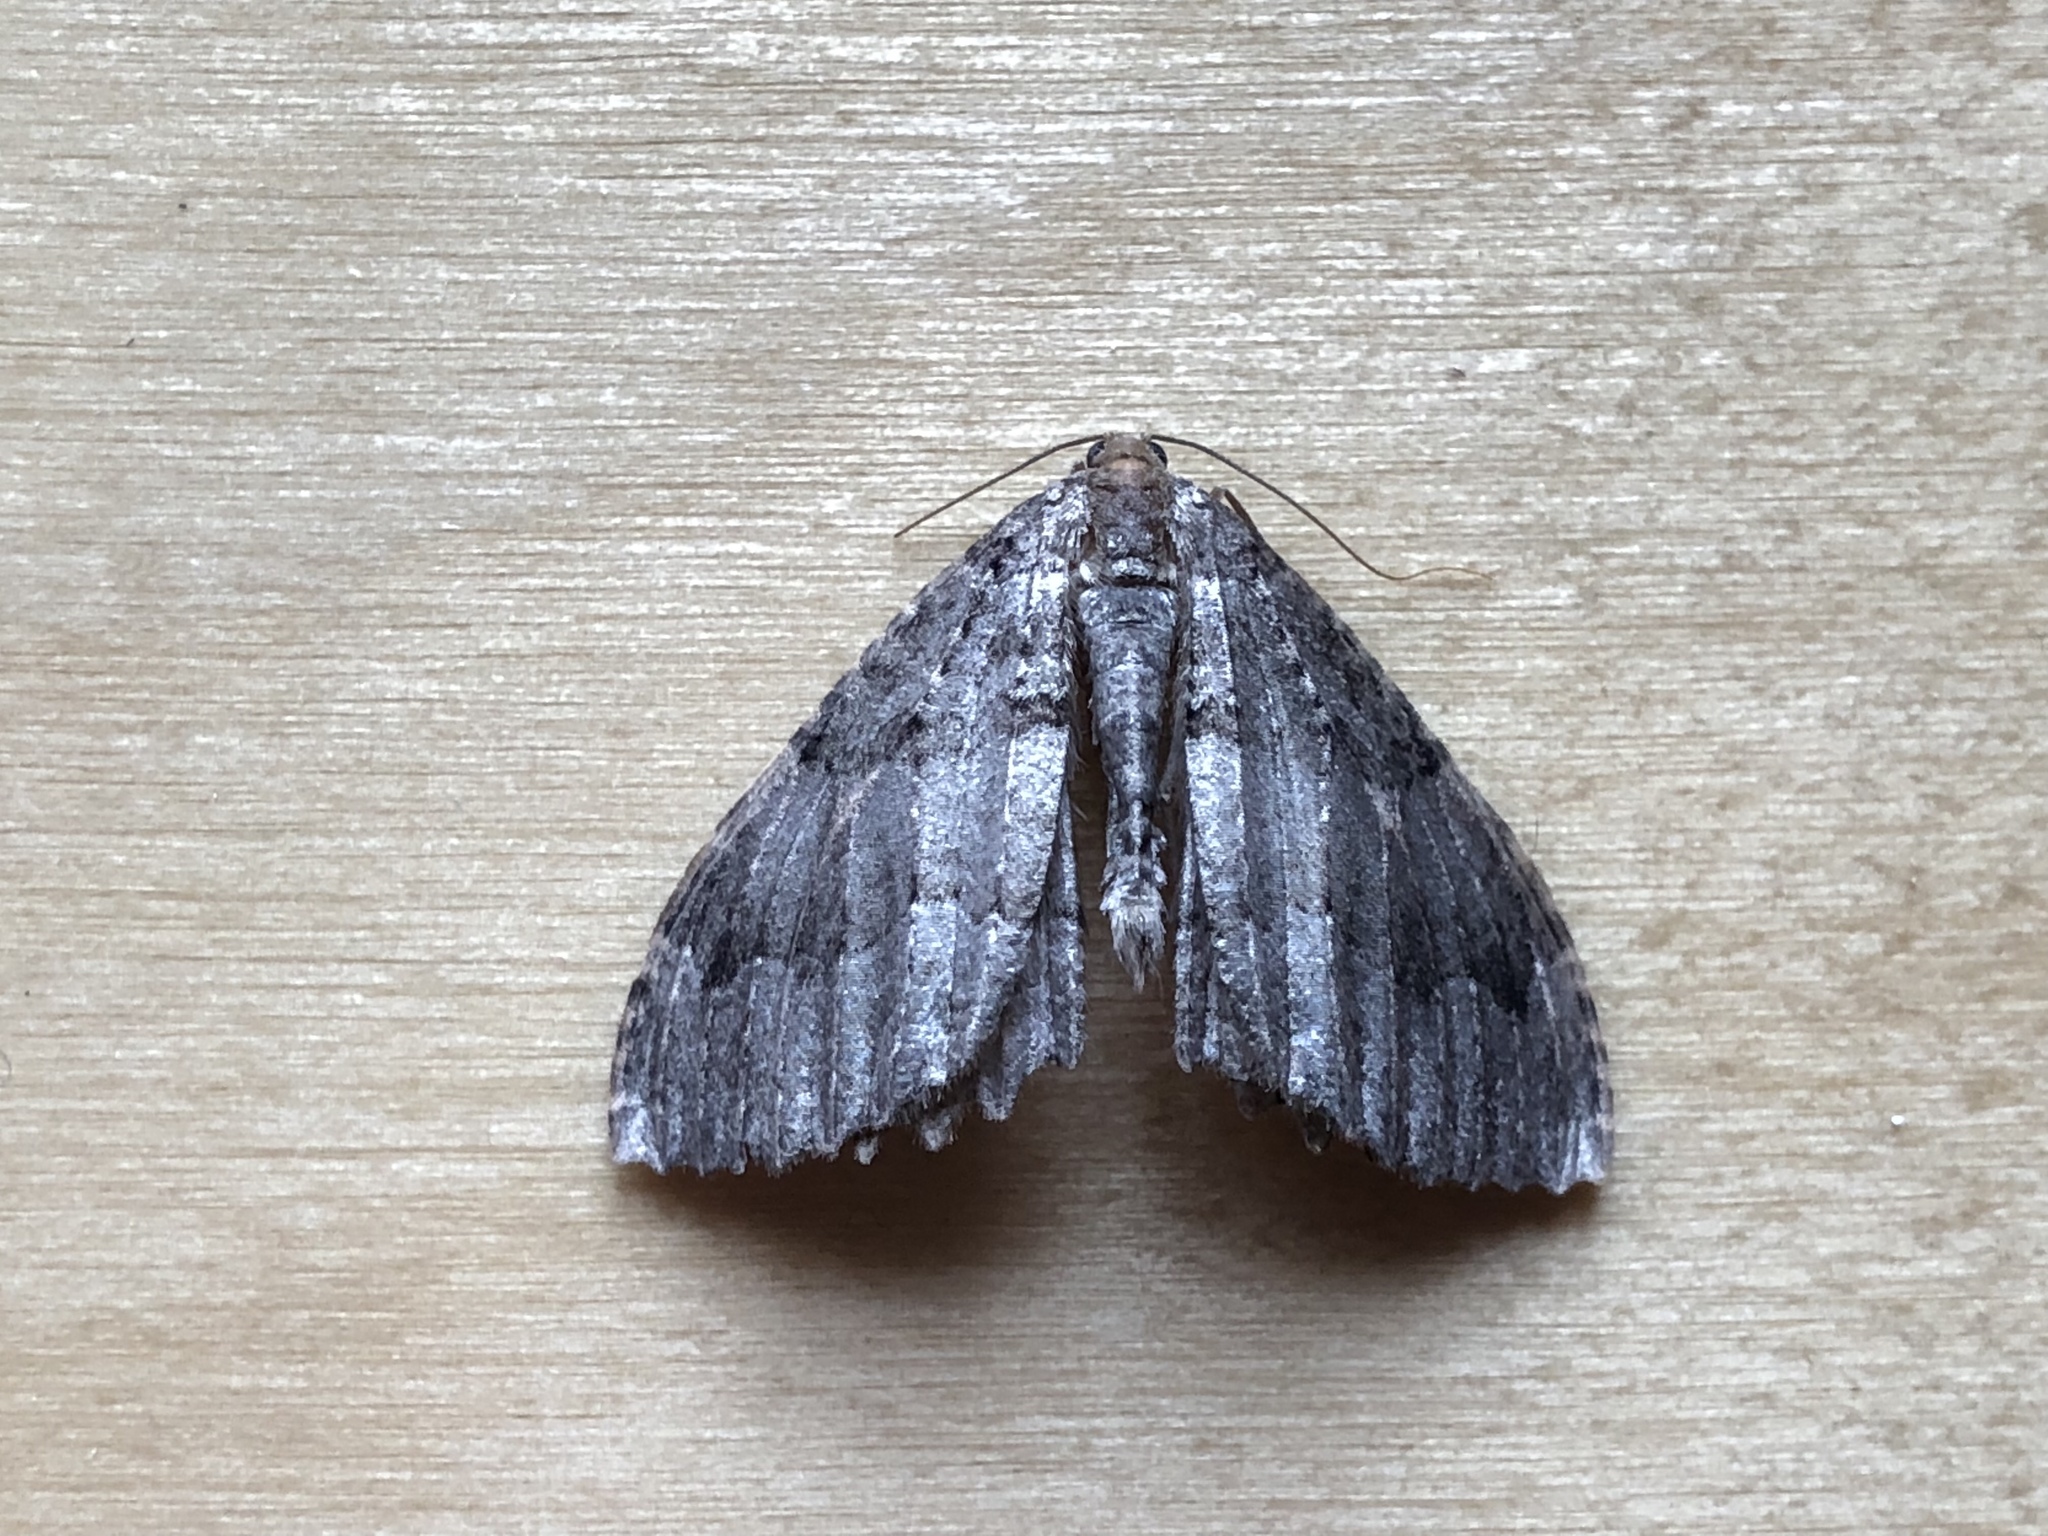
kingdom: Animalia
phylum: Arthropoda
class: Insecta
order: Lepidoptera
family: Geometridae
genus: Triphosa
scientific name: Triphosa dubitata
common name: Tissue
